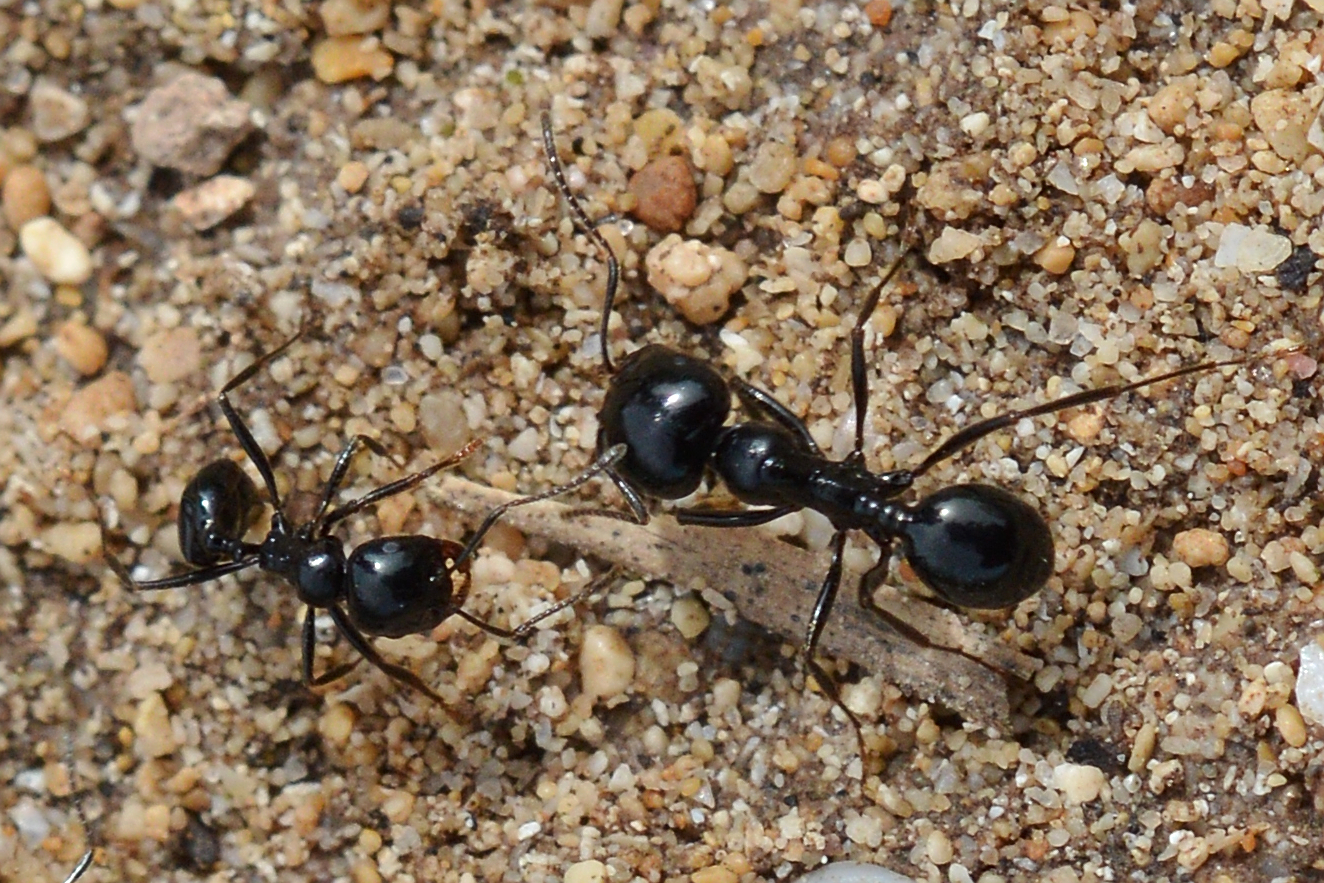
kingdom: Animalia
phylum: Arthropoda
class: Insecta
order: Hymenoptera
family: Formicidae
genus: Messor
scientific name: Messor bouvieri
